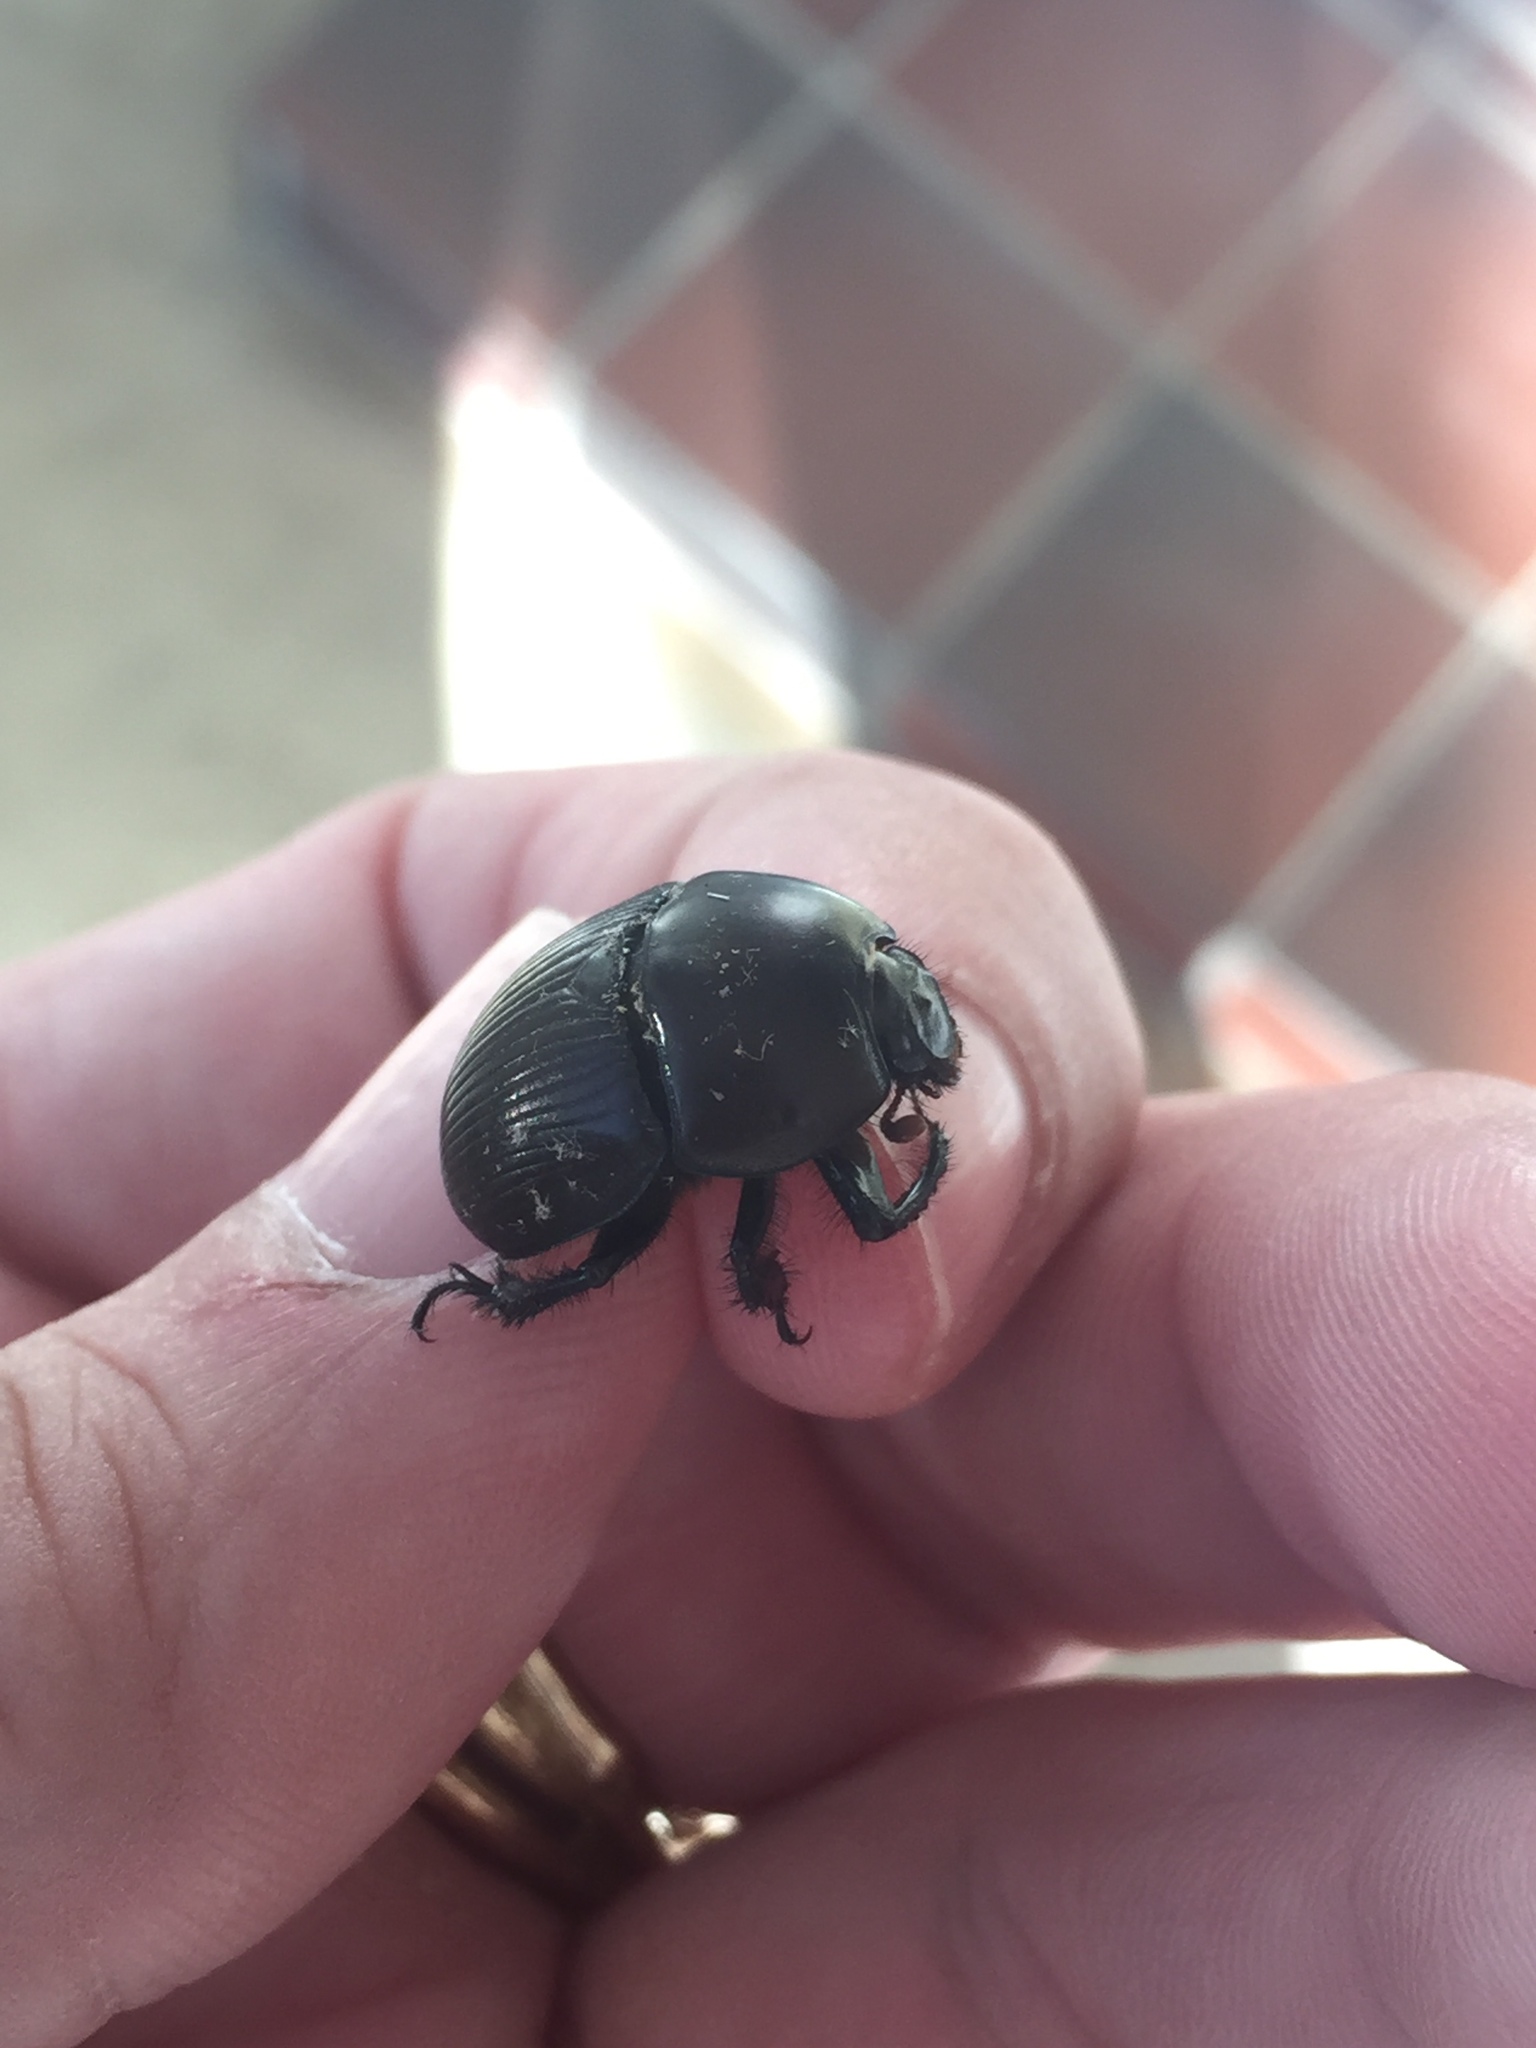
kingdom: Animalia
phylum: Arthropoda
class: Insecta
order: Coleoptera
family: Geotrupidae
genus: Cnemotrupes
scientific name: Cnemotrupes semiopacus
